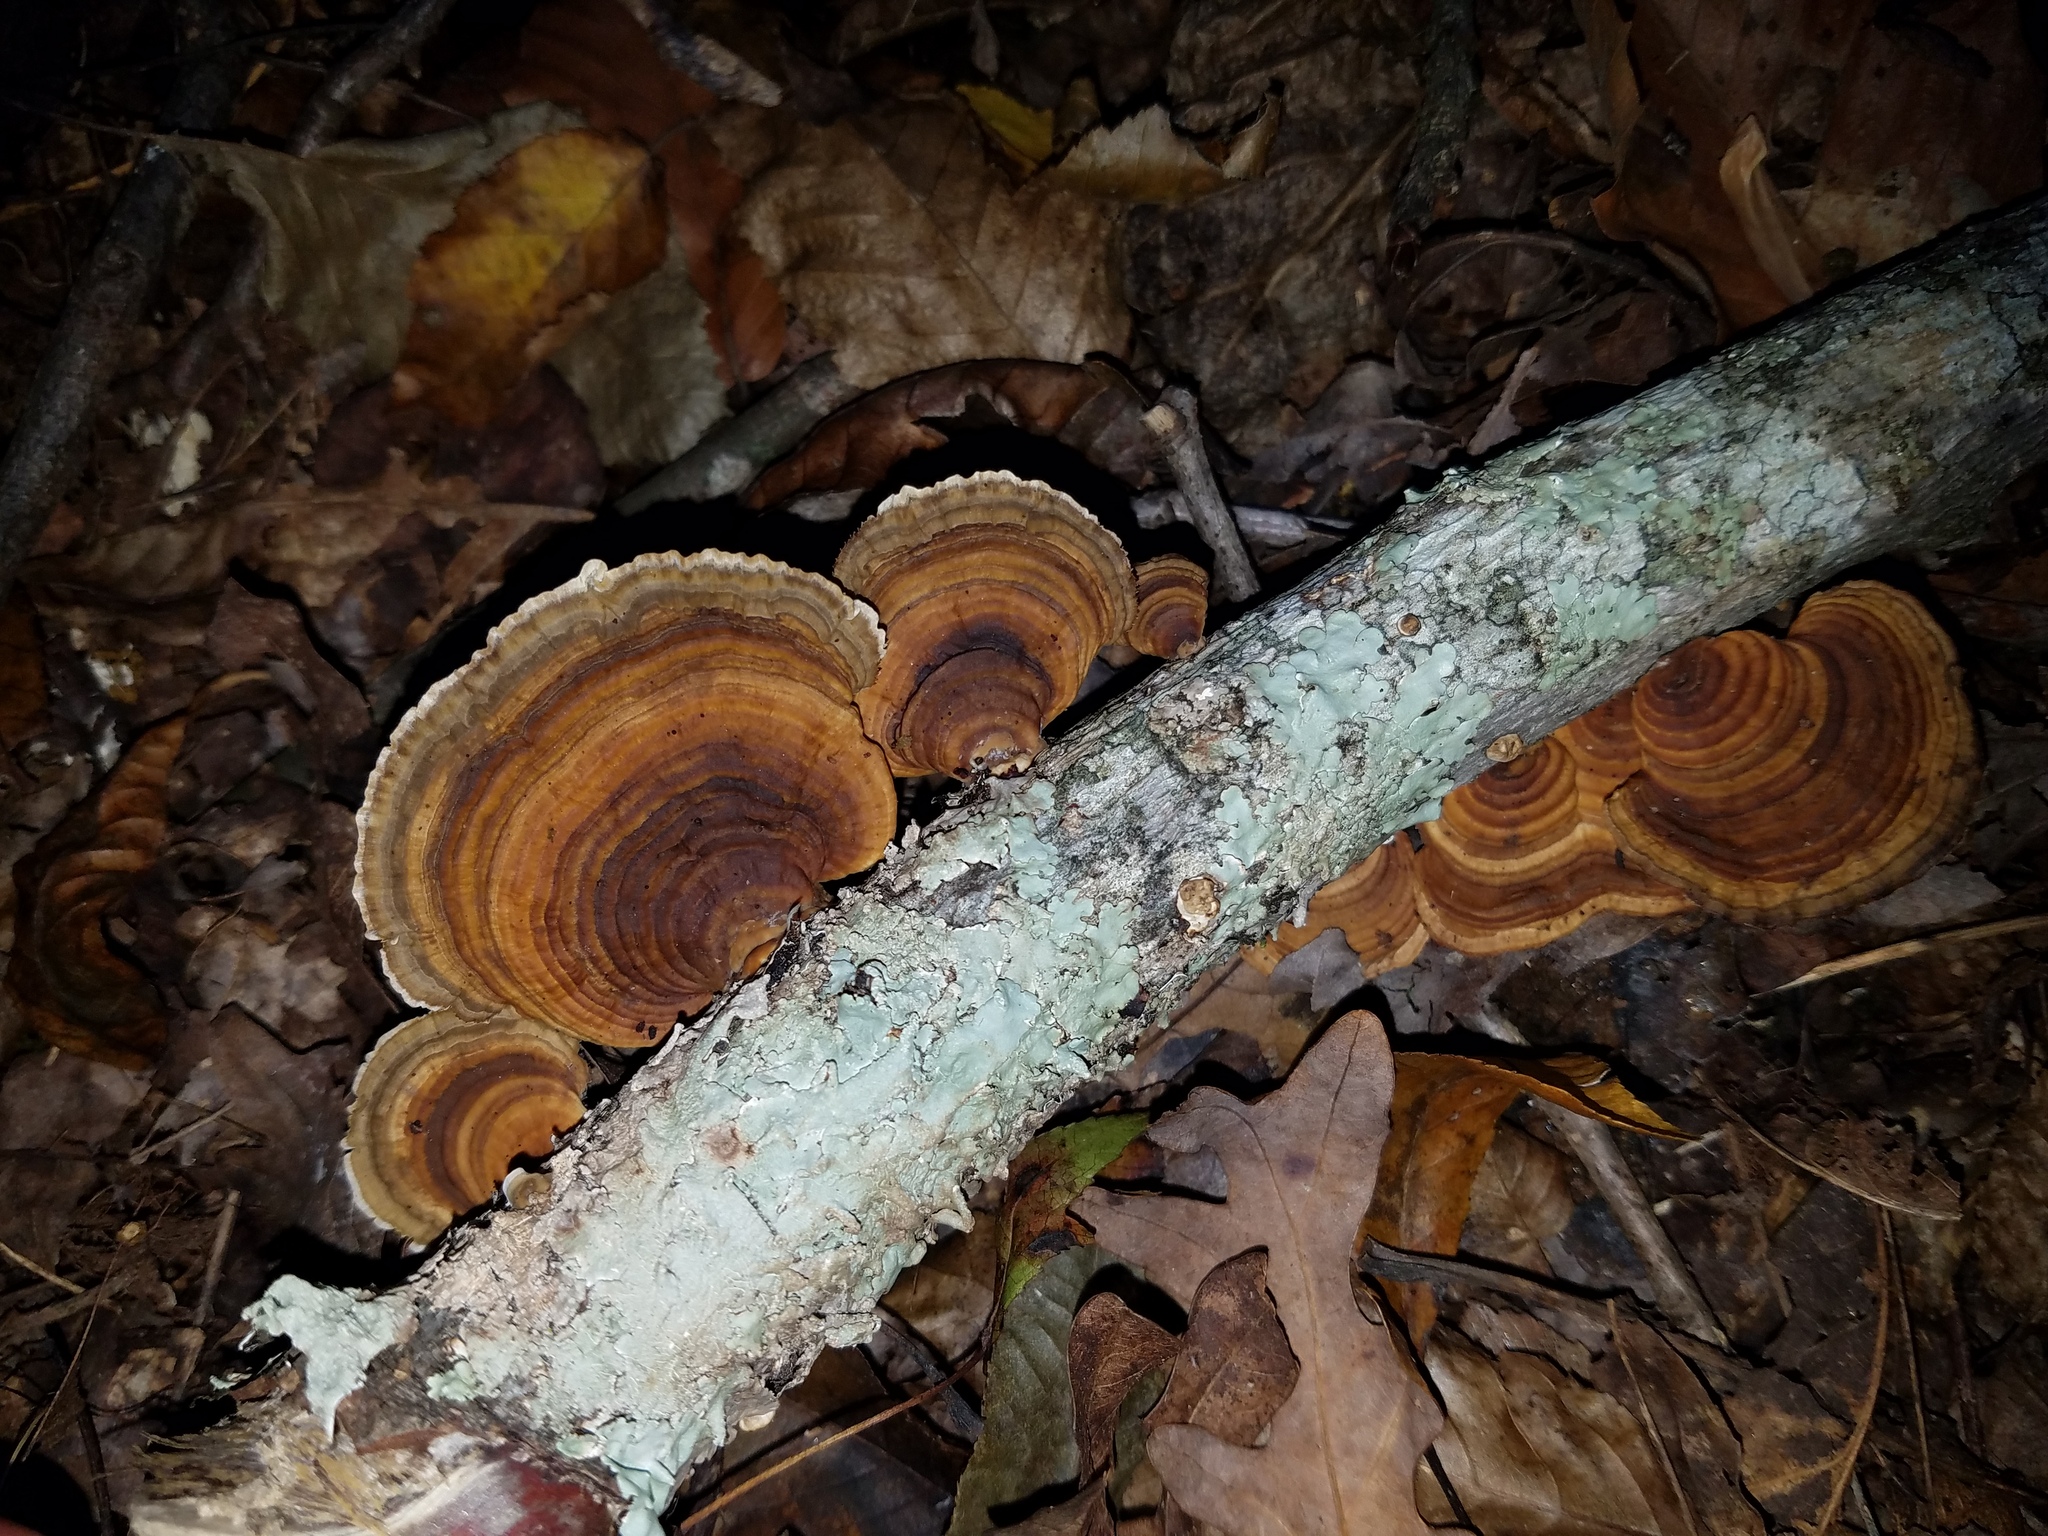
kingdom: Fungi
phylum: Basidiomycota
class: Agaricomycetes
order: Polyporales
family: Polyporaceae
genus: Daedaleopsis
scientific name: Daedaleopsis confragosa
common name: Blushing bracket
